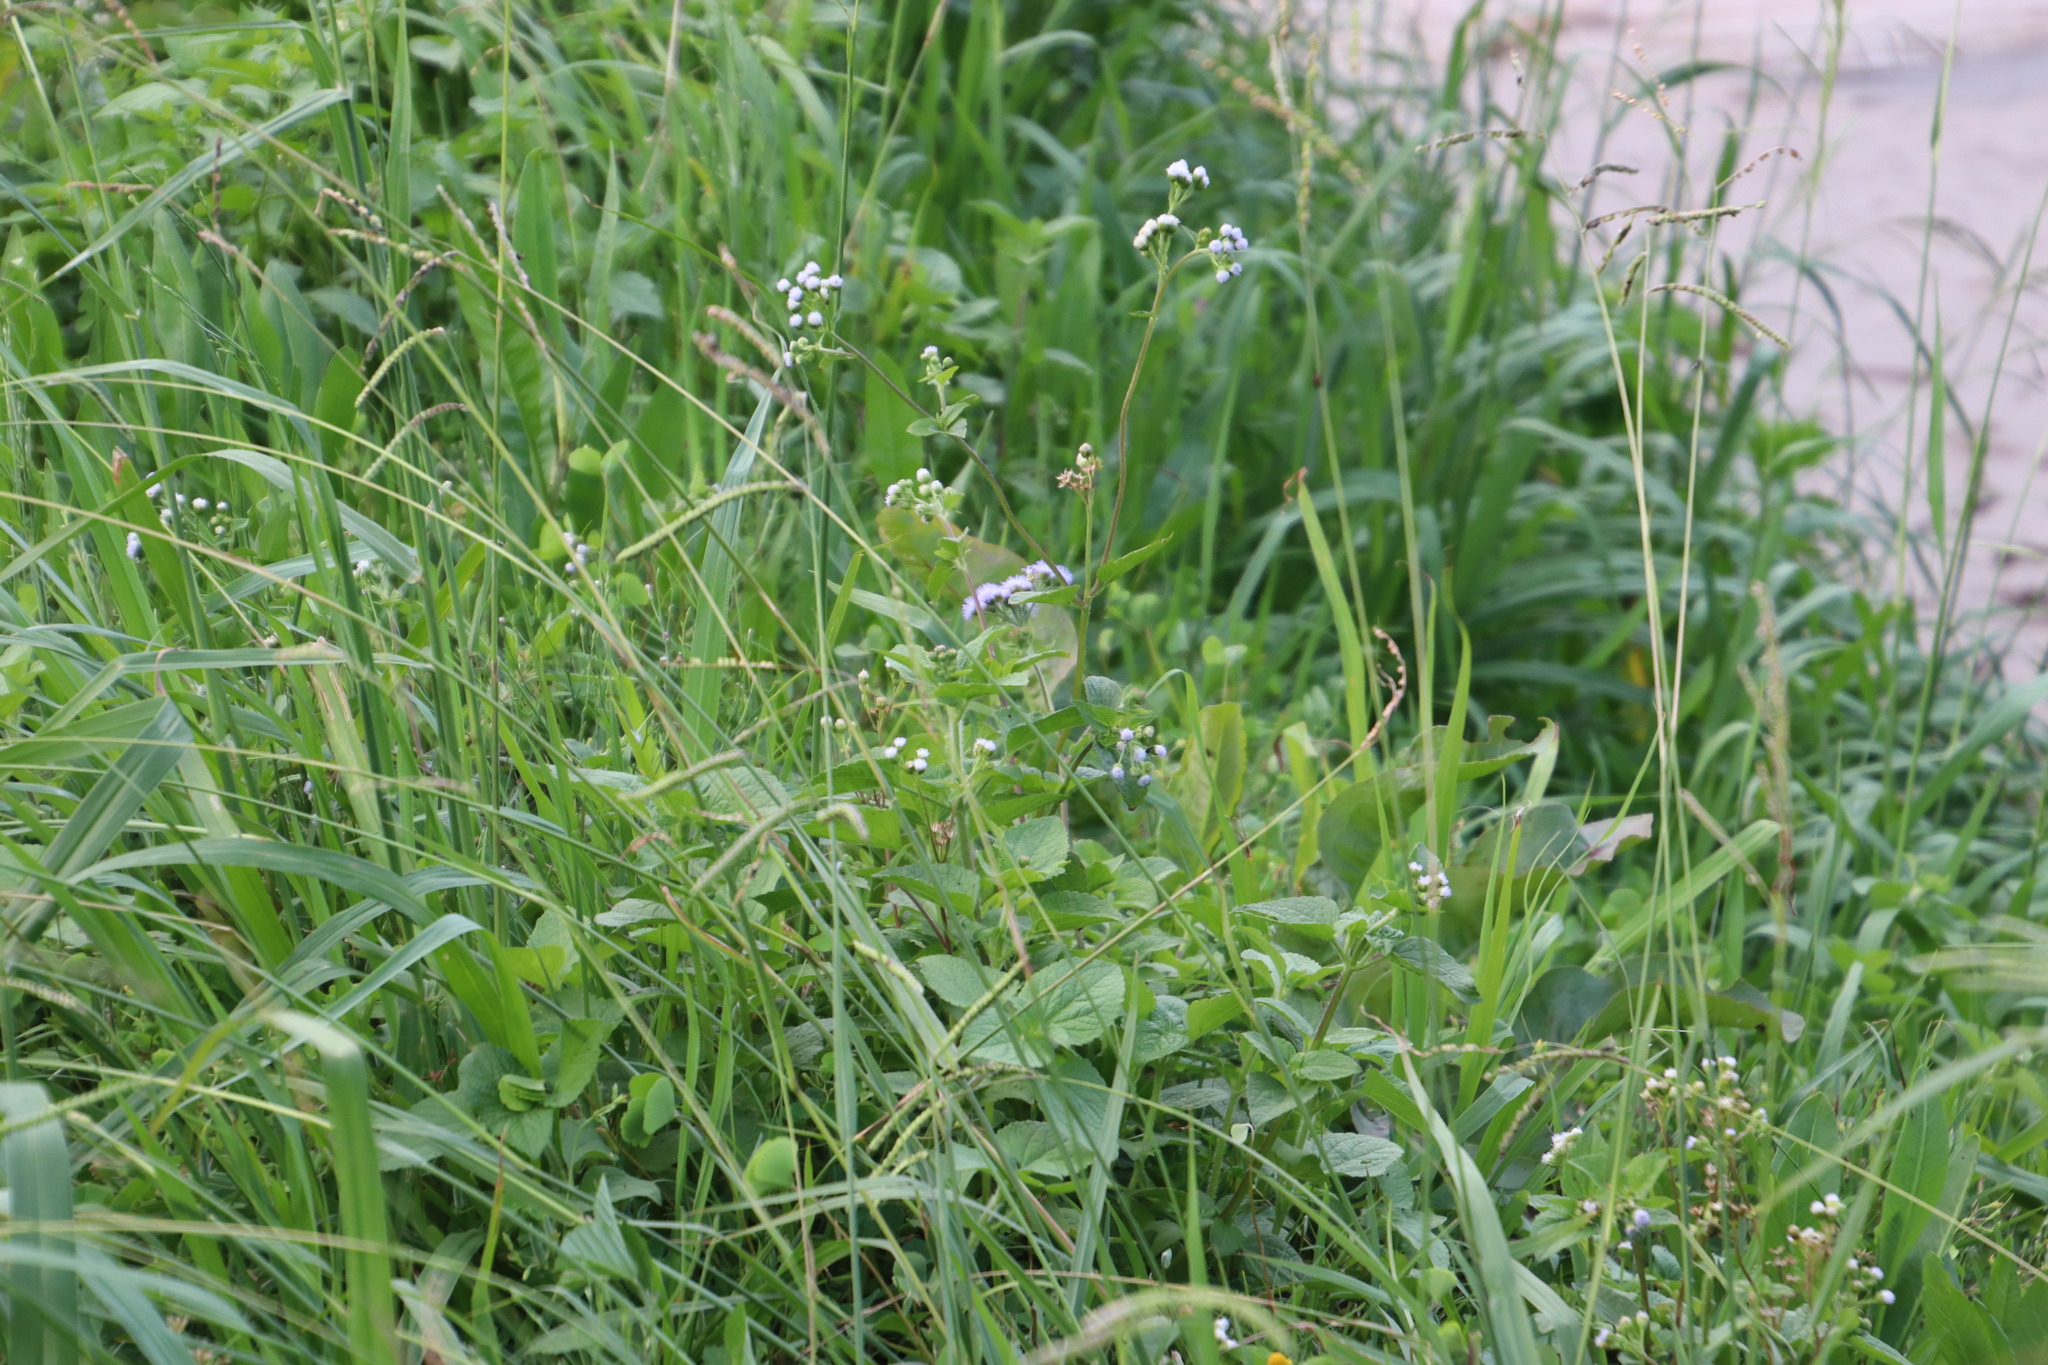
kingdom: Plantae
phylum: Tracheophyta
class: Magnoliopsida
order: Asterales
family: Asteraceae
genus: Ageratum
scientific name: Ageratum houstonianum
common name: Bluemink
